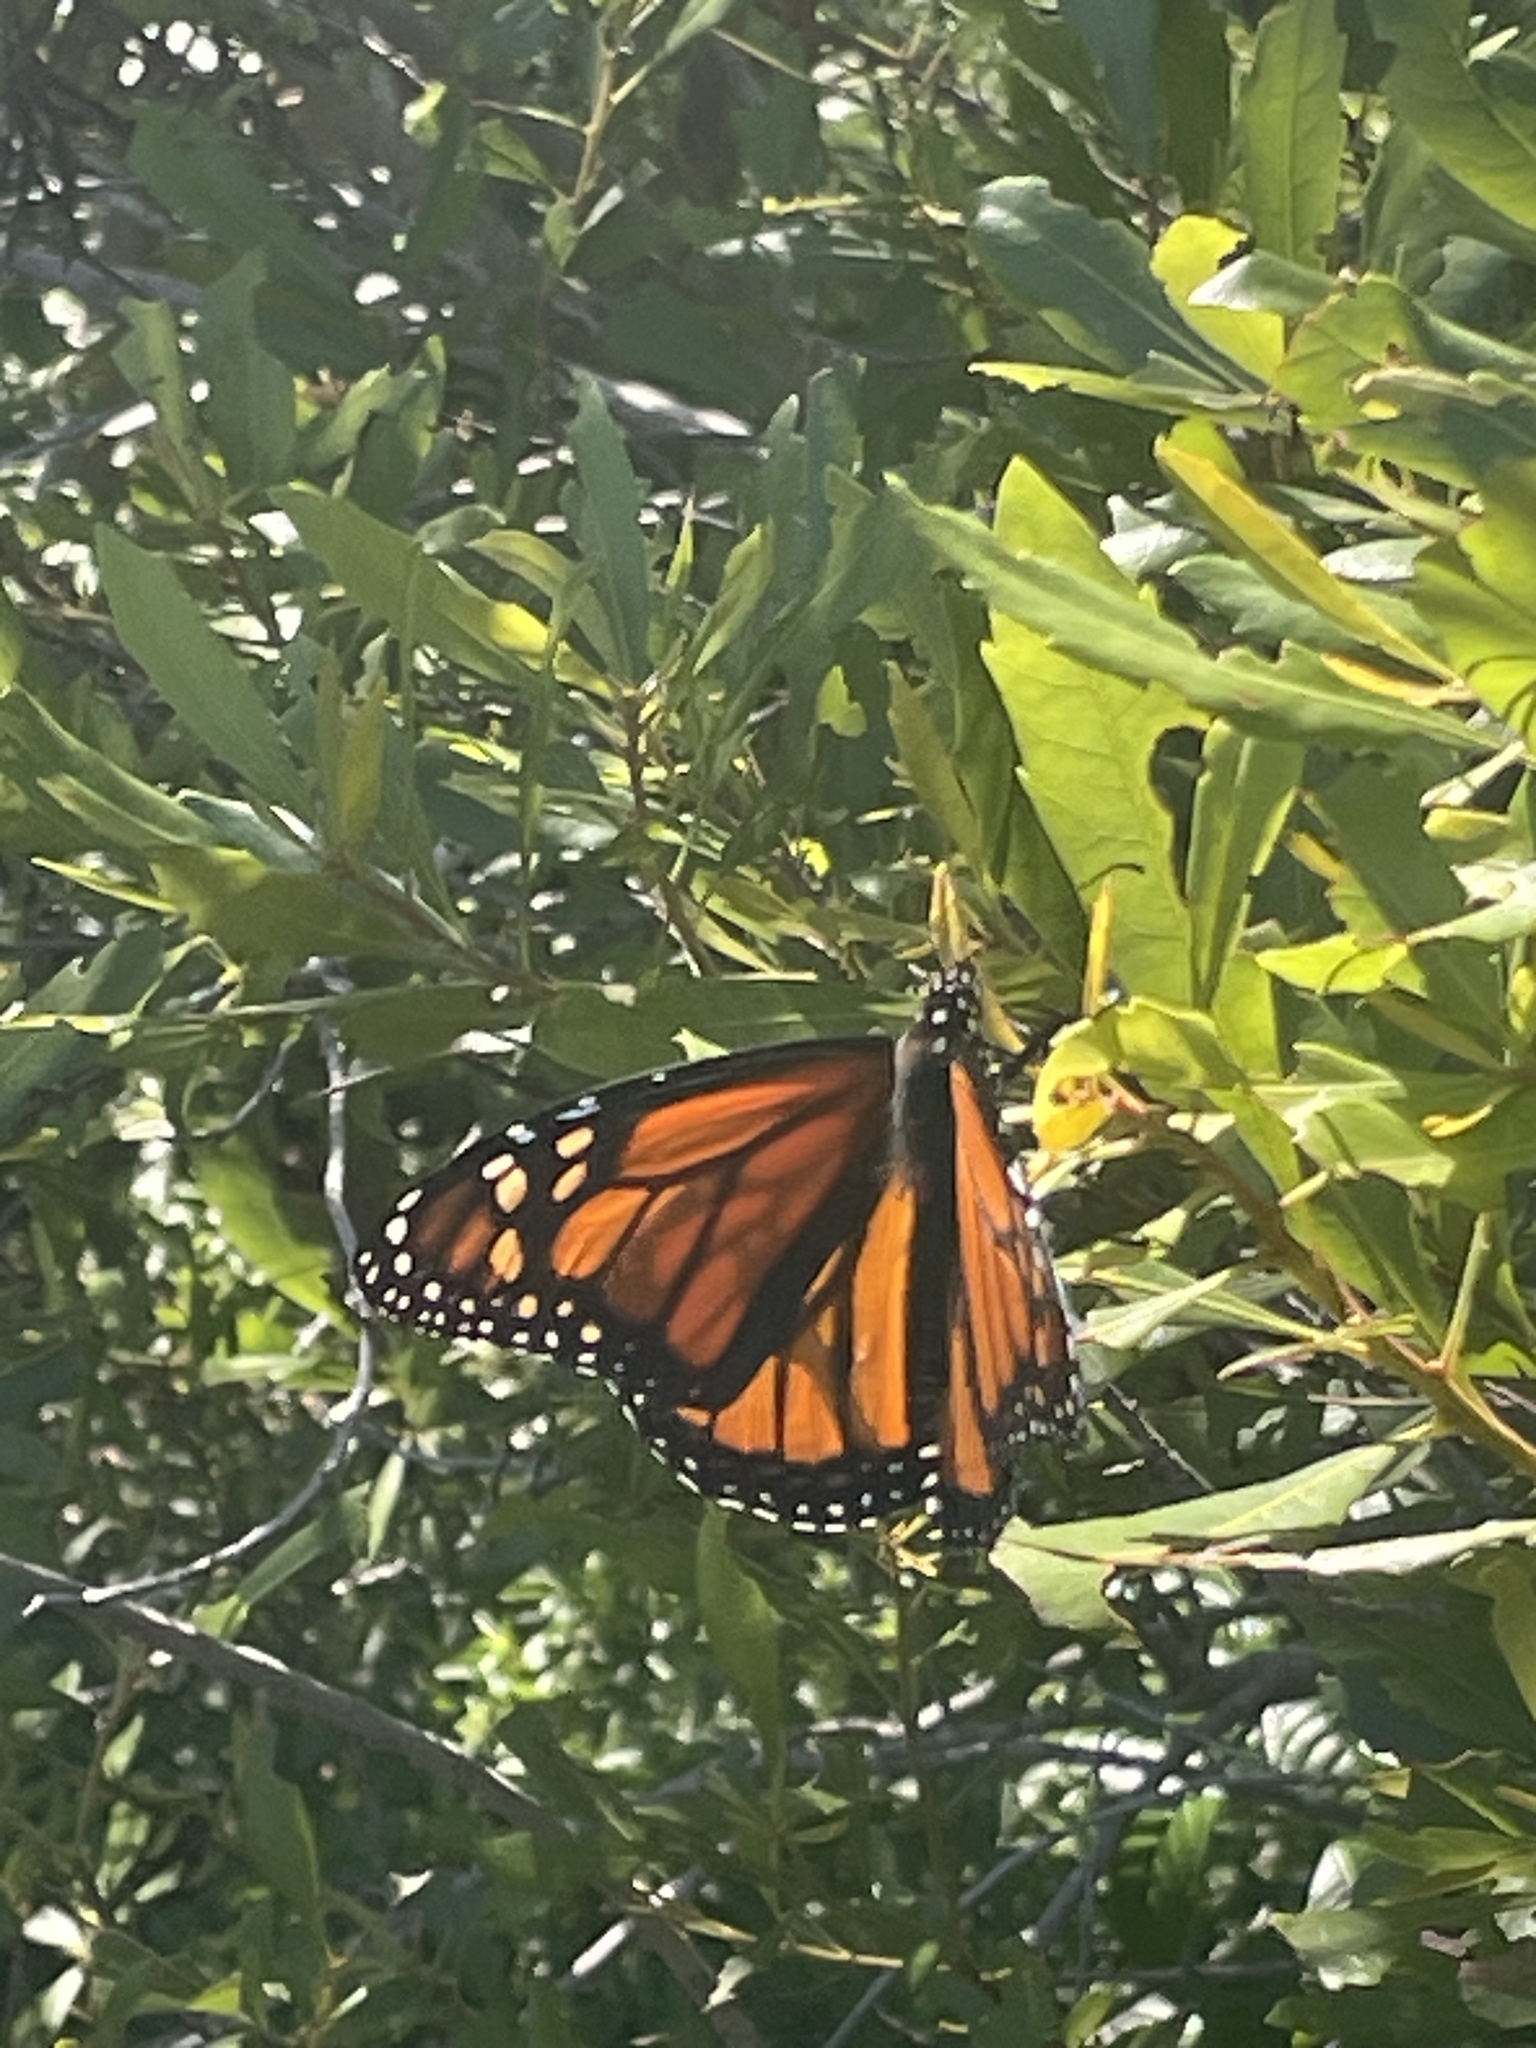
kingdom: Animalia
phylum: Arthropoda
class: Insecta
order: Lepidoptera
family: Nymphalidae
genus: Danaus
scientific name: Danaus plexippus
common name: Monarch
